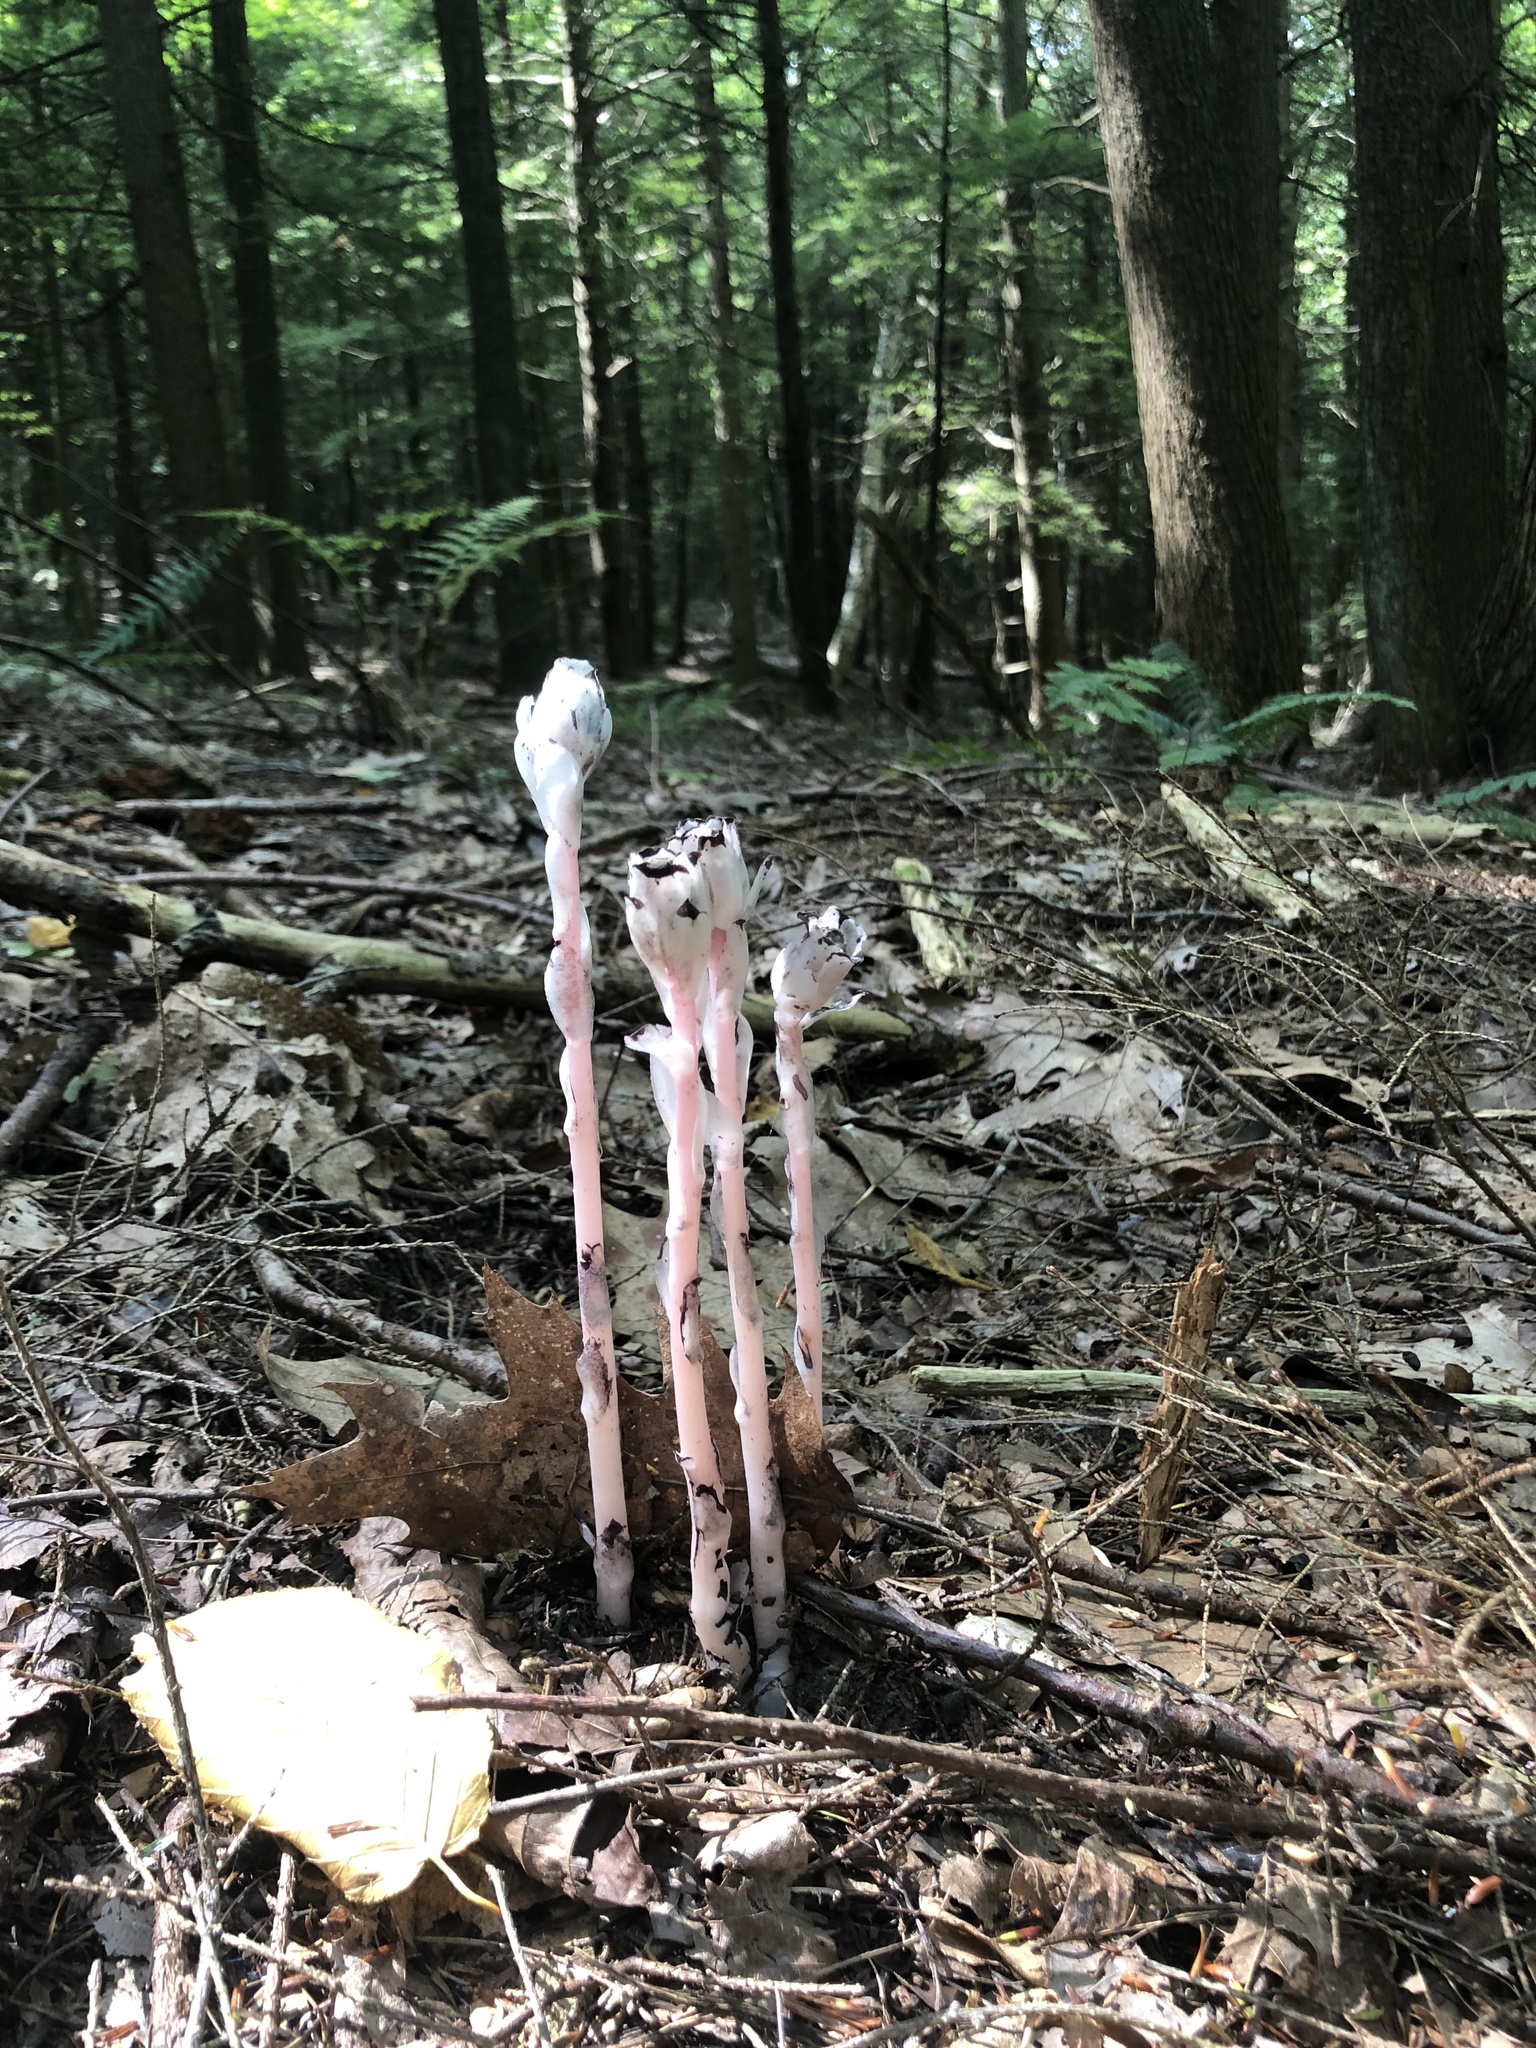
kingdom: Plantae
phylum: Tracheophyta
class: Magnoliopsida
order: Ericales
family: Ericaceae
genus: Monotropa
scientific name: Monotropa uniflora
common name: Convulsion root
